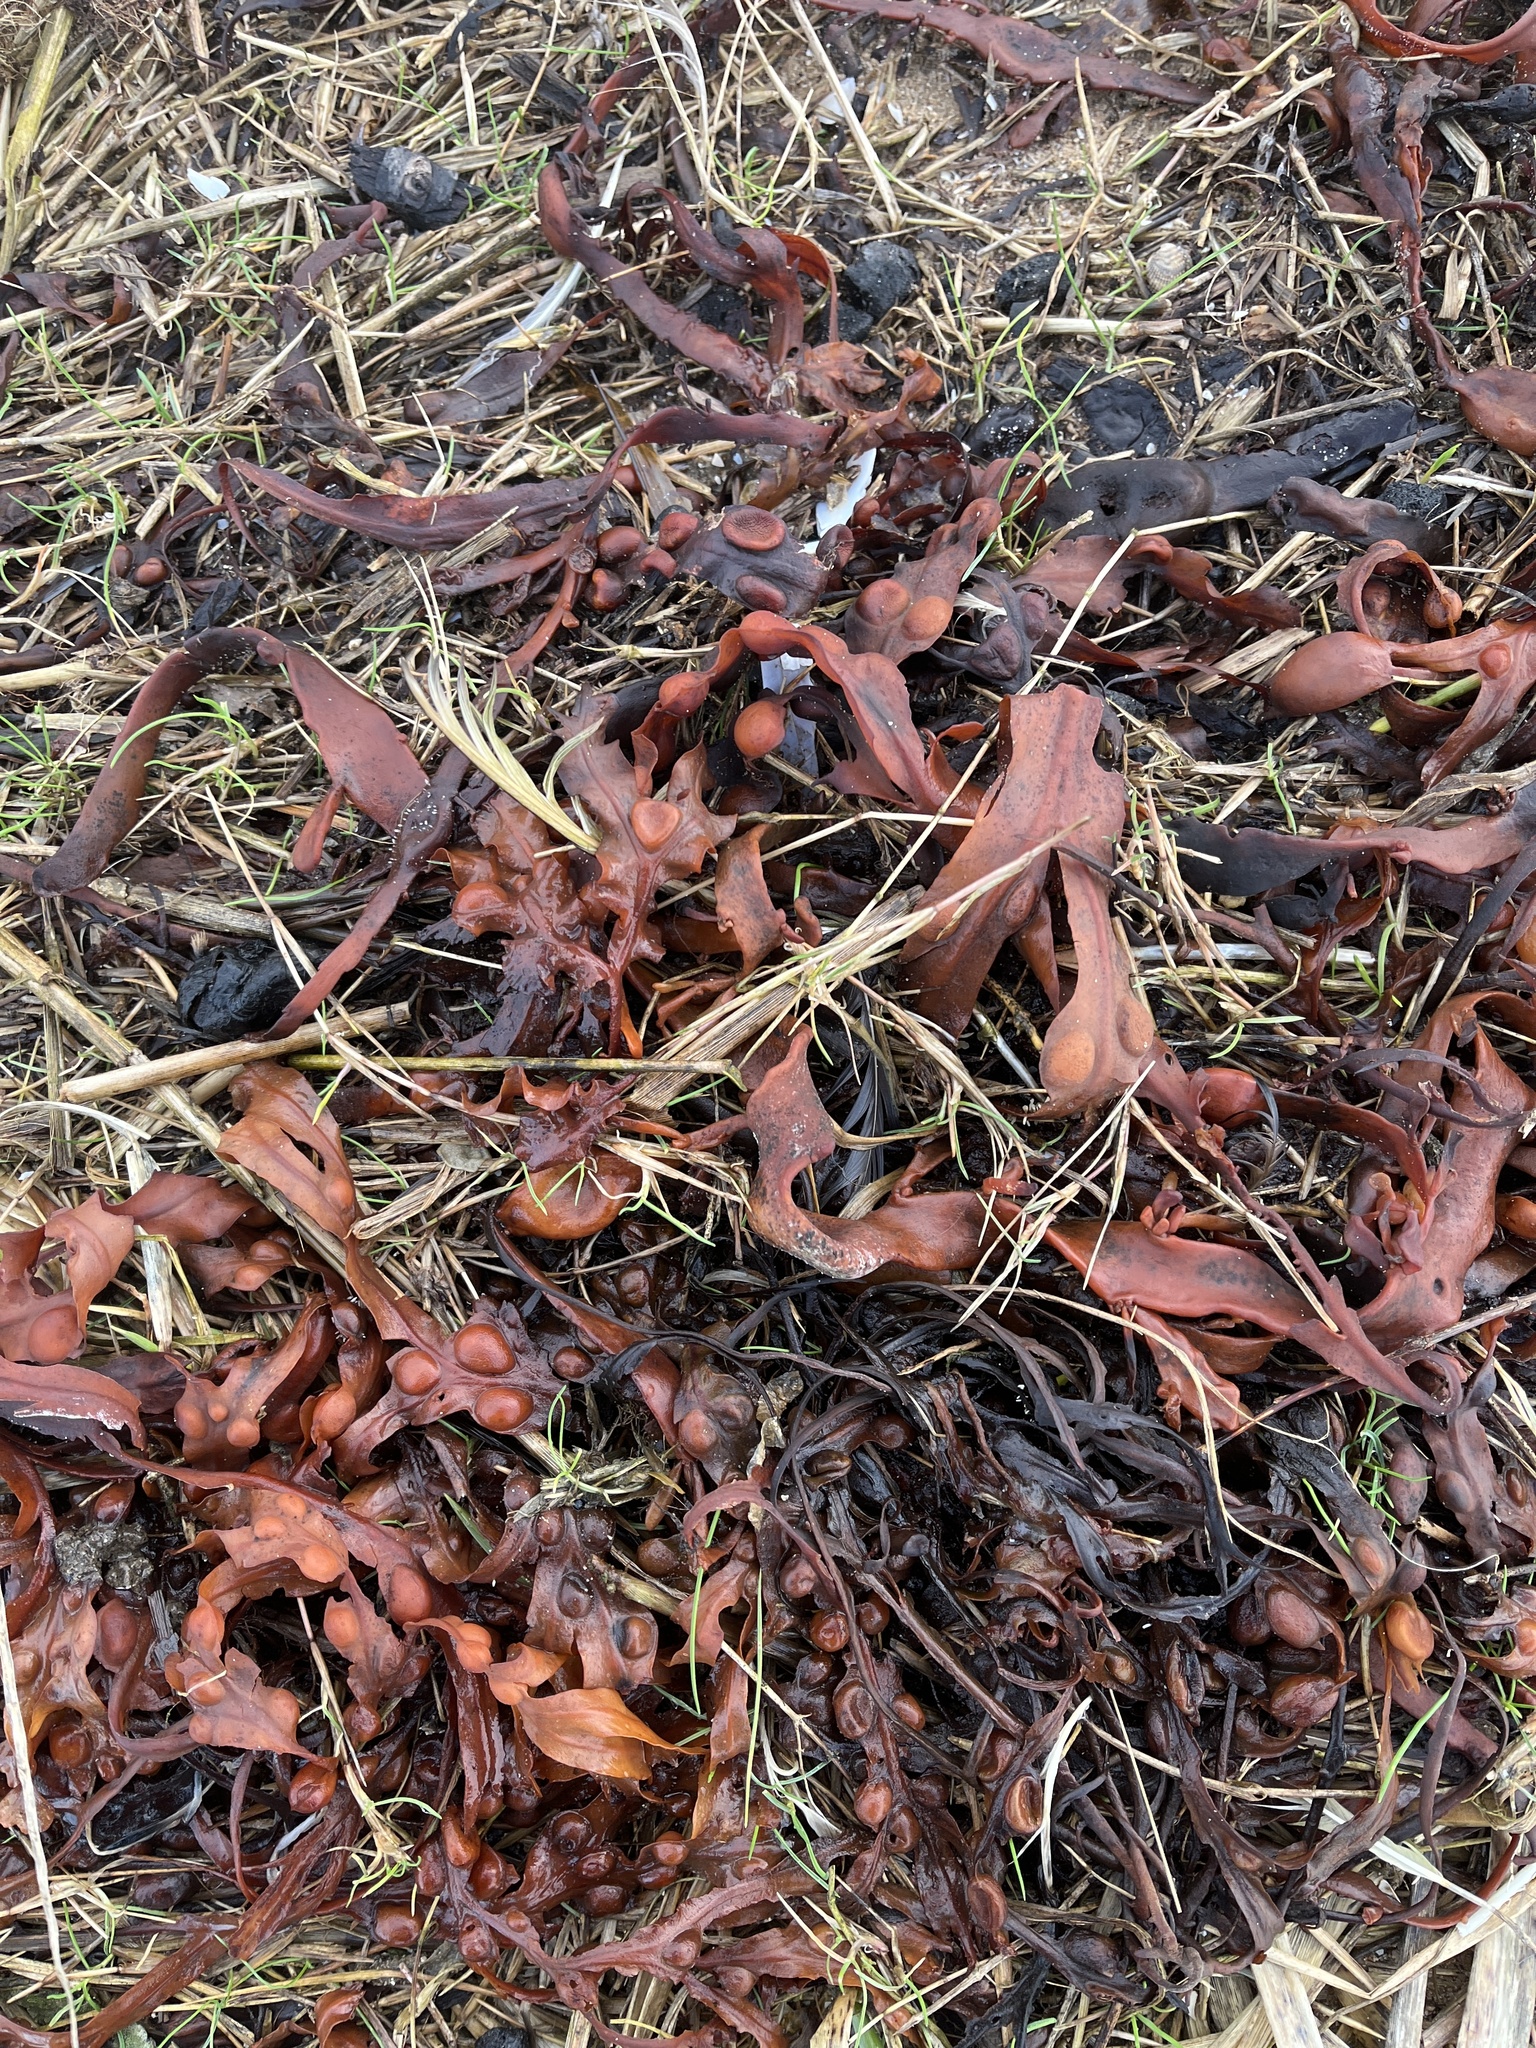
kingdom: Chromista
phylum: Ochrophyta
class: Phaeophyceae
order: Fucales
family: Fucaceae
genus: Fucus
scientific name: Fucus vesiculosus
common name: Bladder wrack
